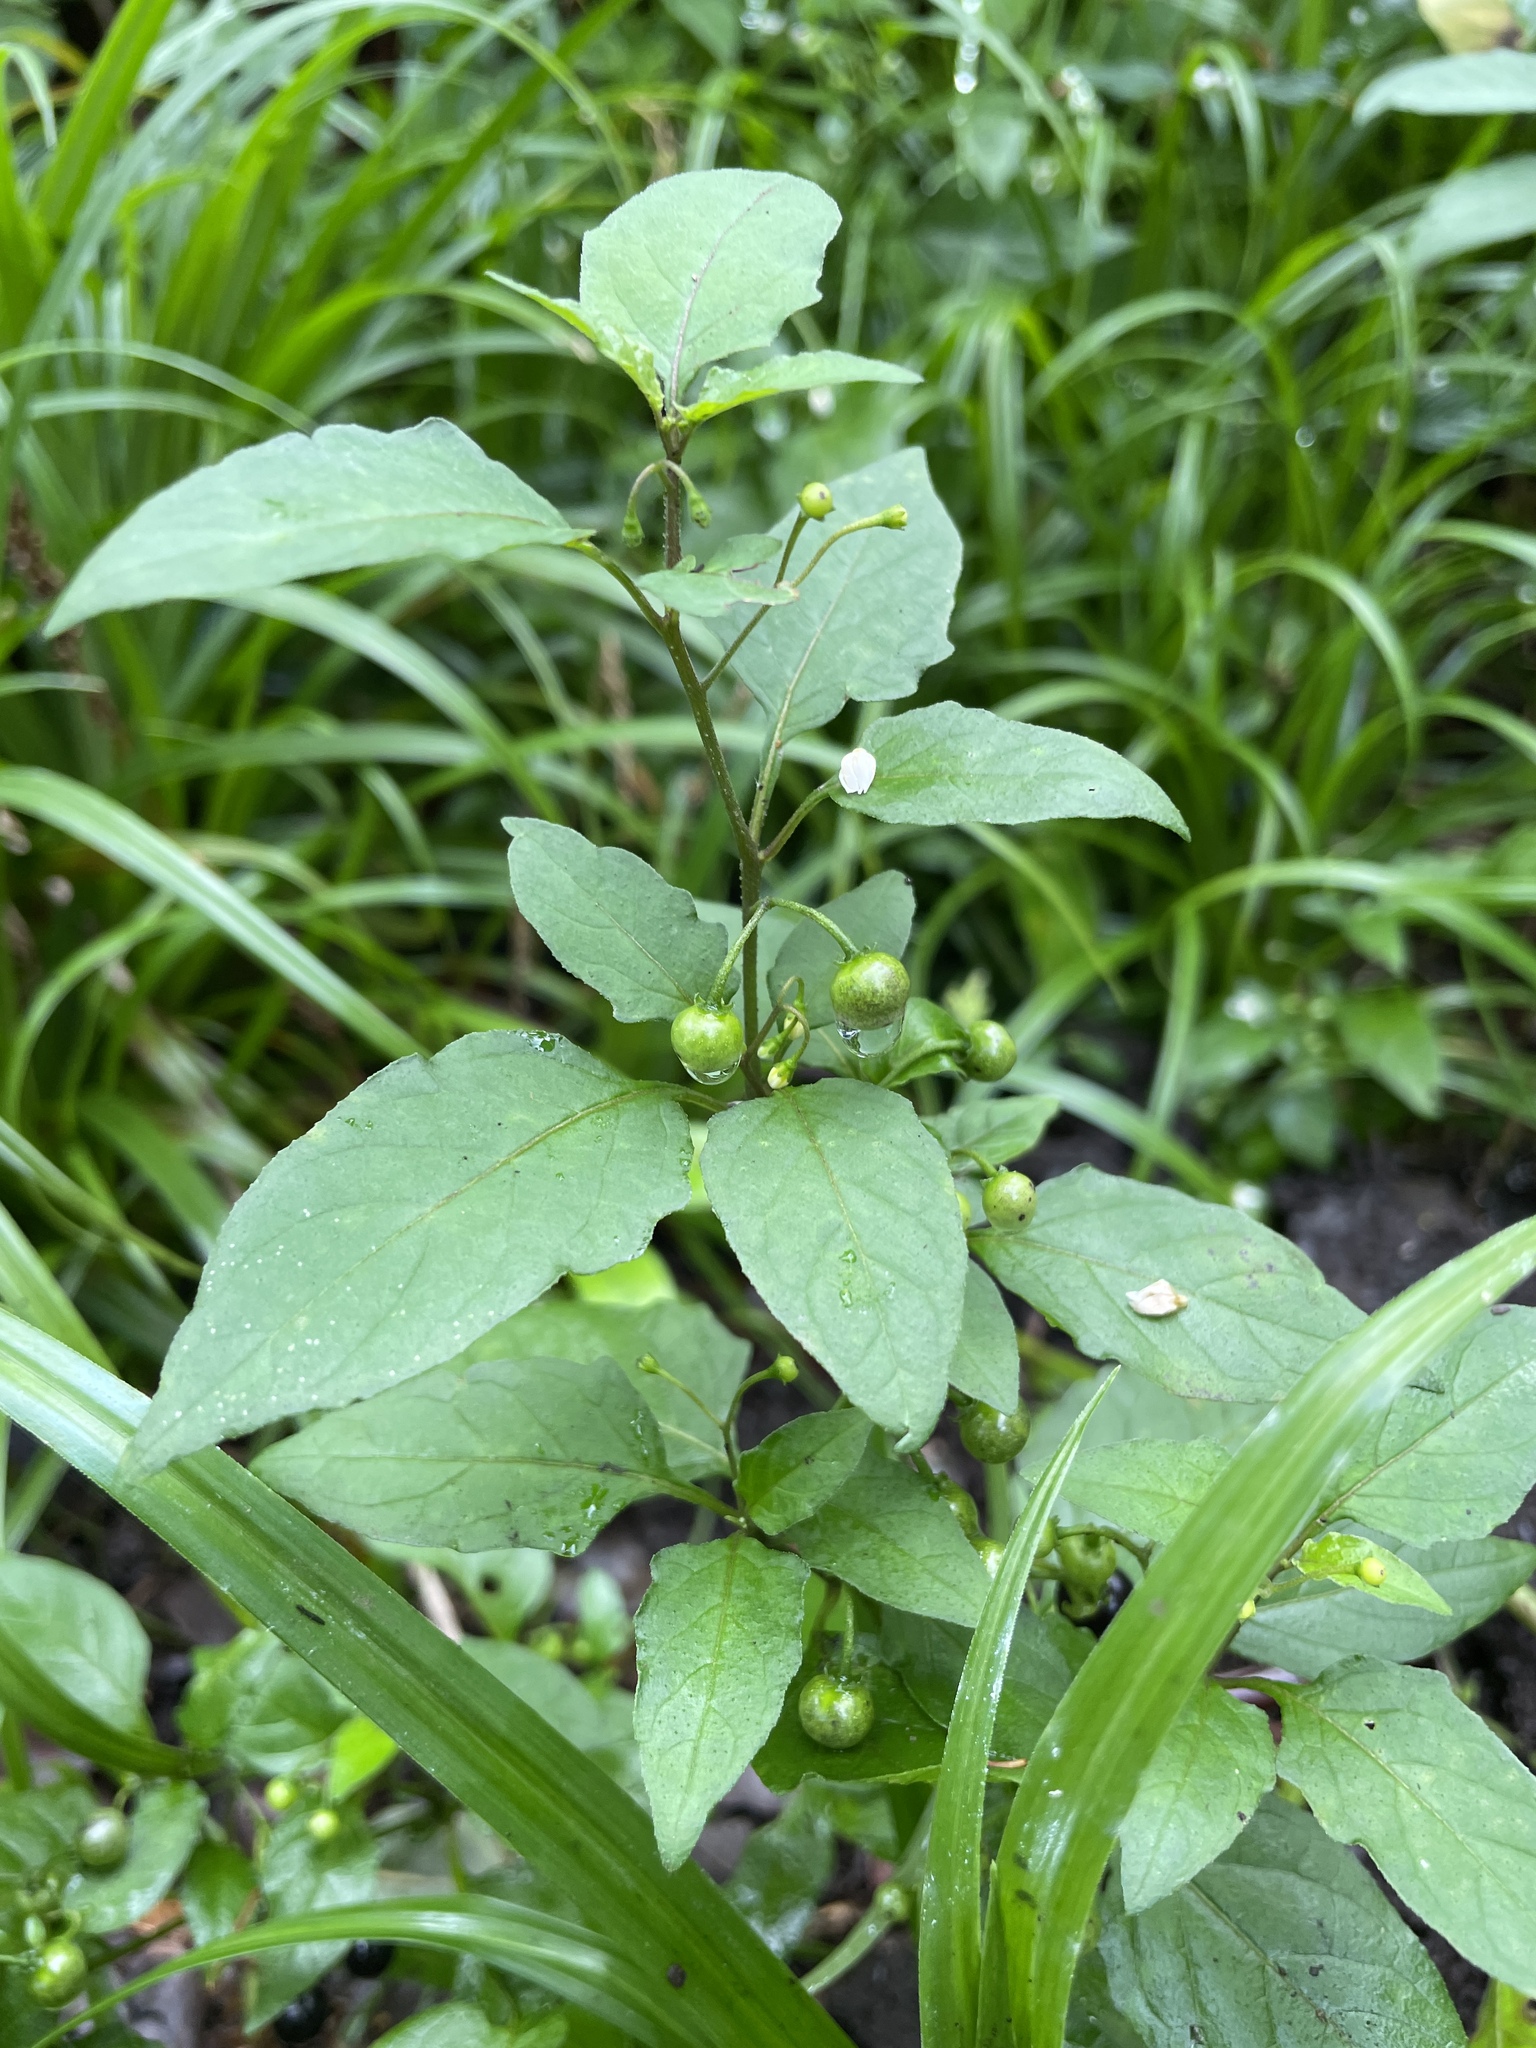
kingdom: Plantae
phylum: Tracheophyta
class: Magnoliopsida
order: Solanales
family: Solanaceae
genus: Solanum
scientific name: Solanum americanum
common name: American black nightshade
